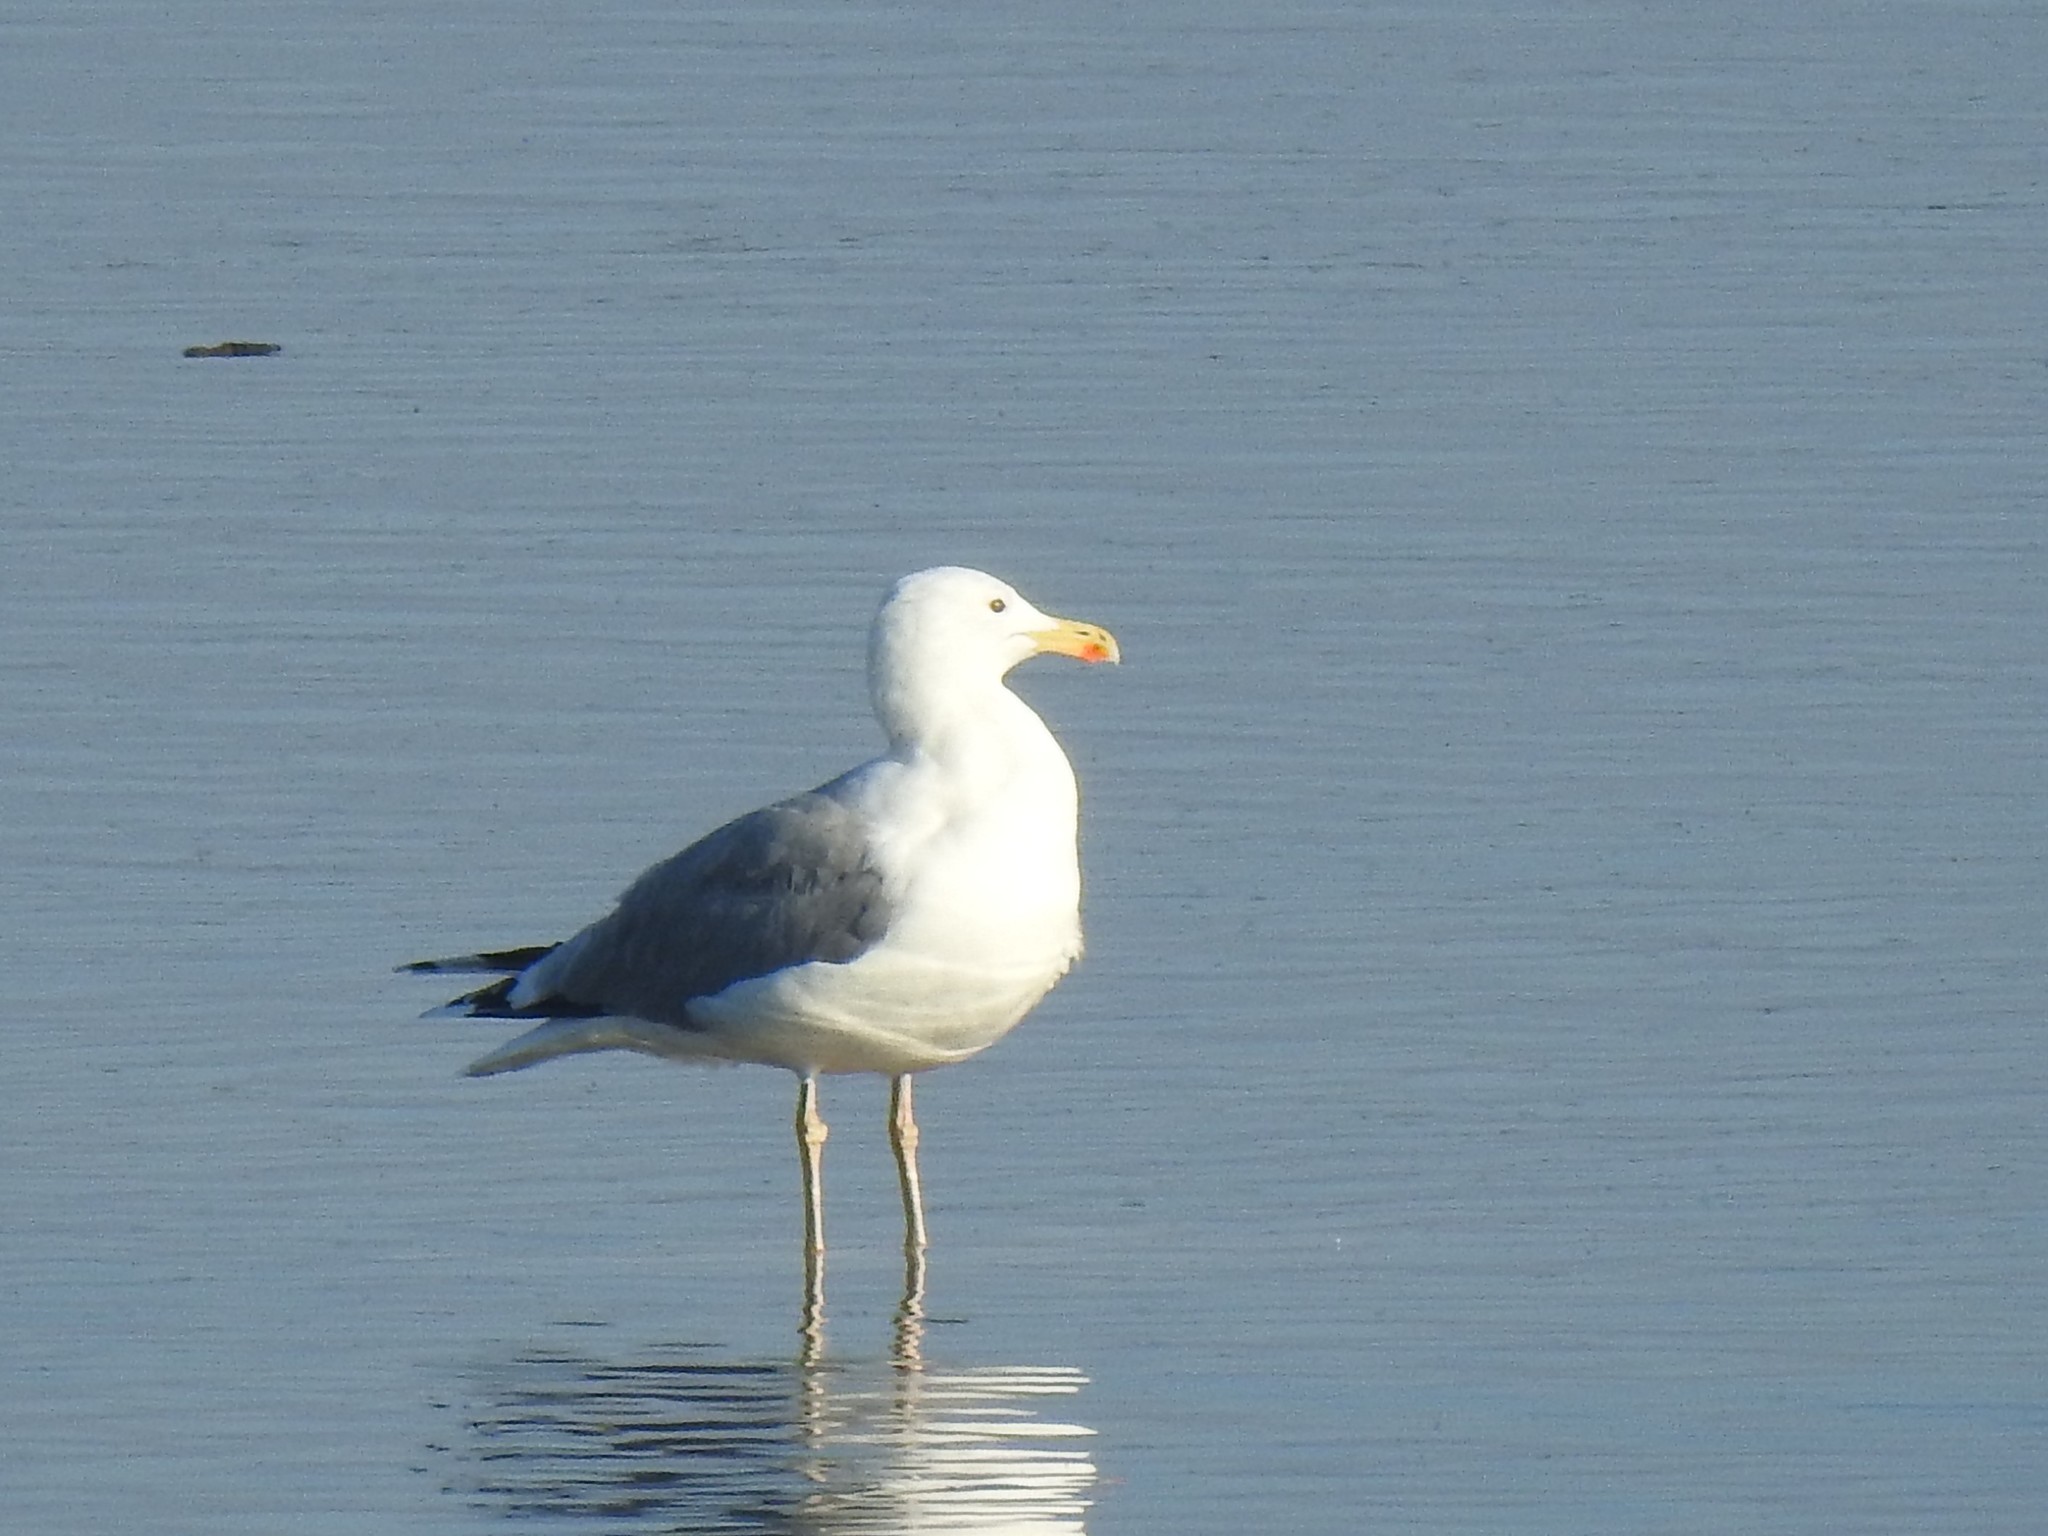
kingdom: Animalia
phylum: Chordata
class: Aves
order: Charadriiformes
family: Laridae
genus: Larus
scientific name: Larus cachinnans
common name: Caspian gull
